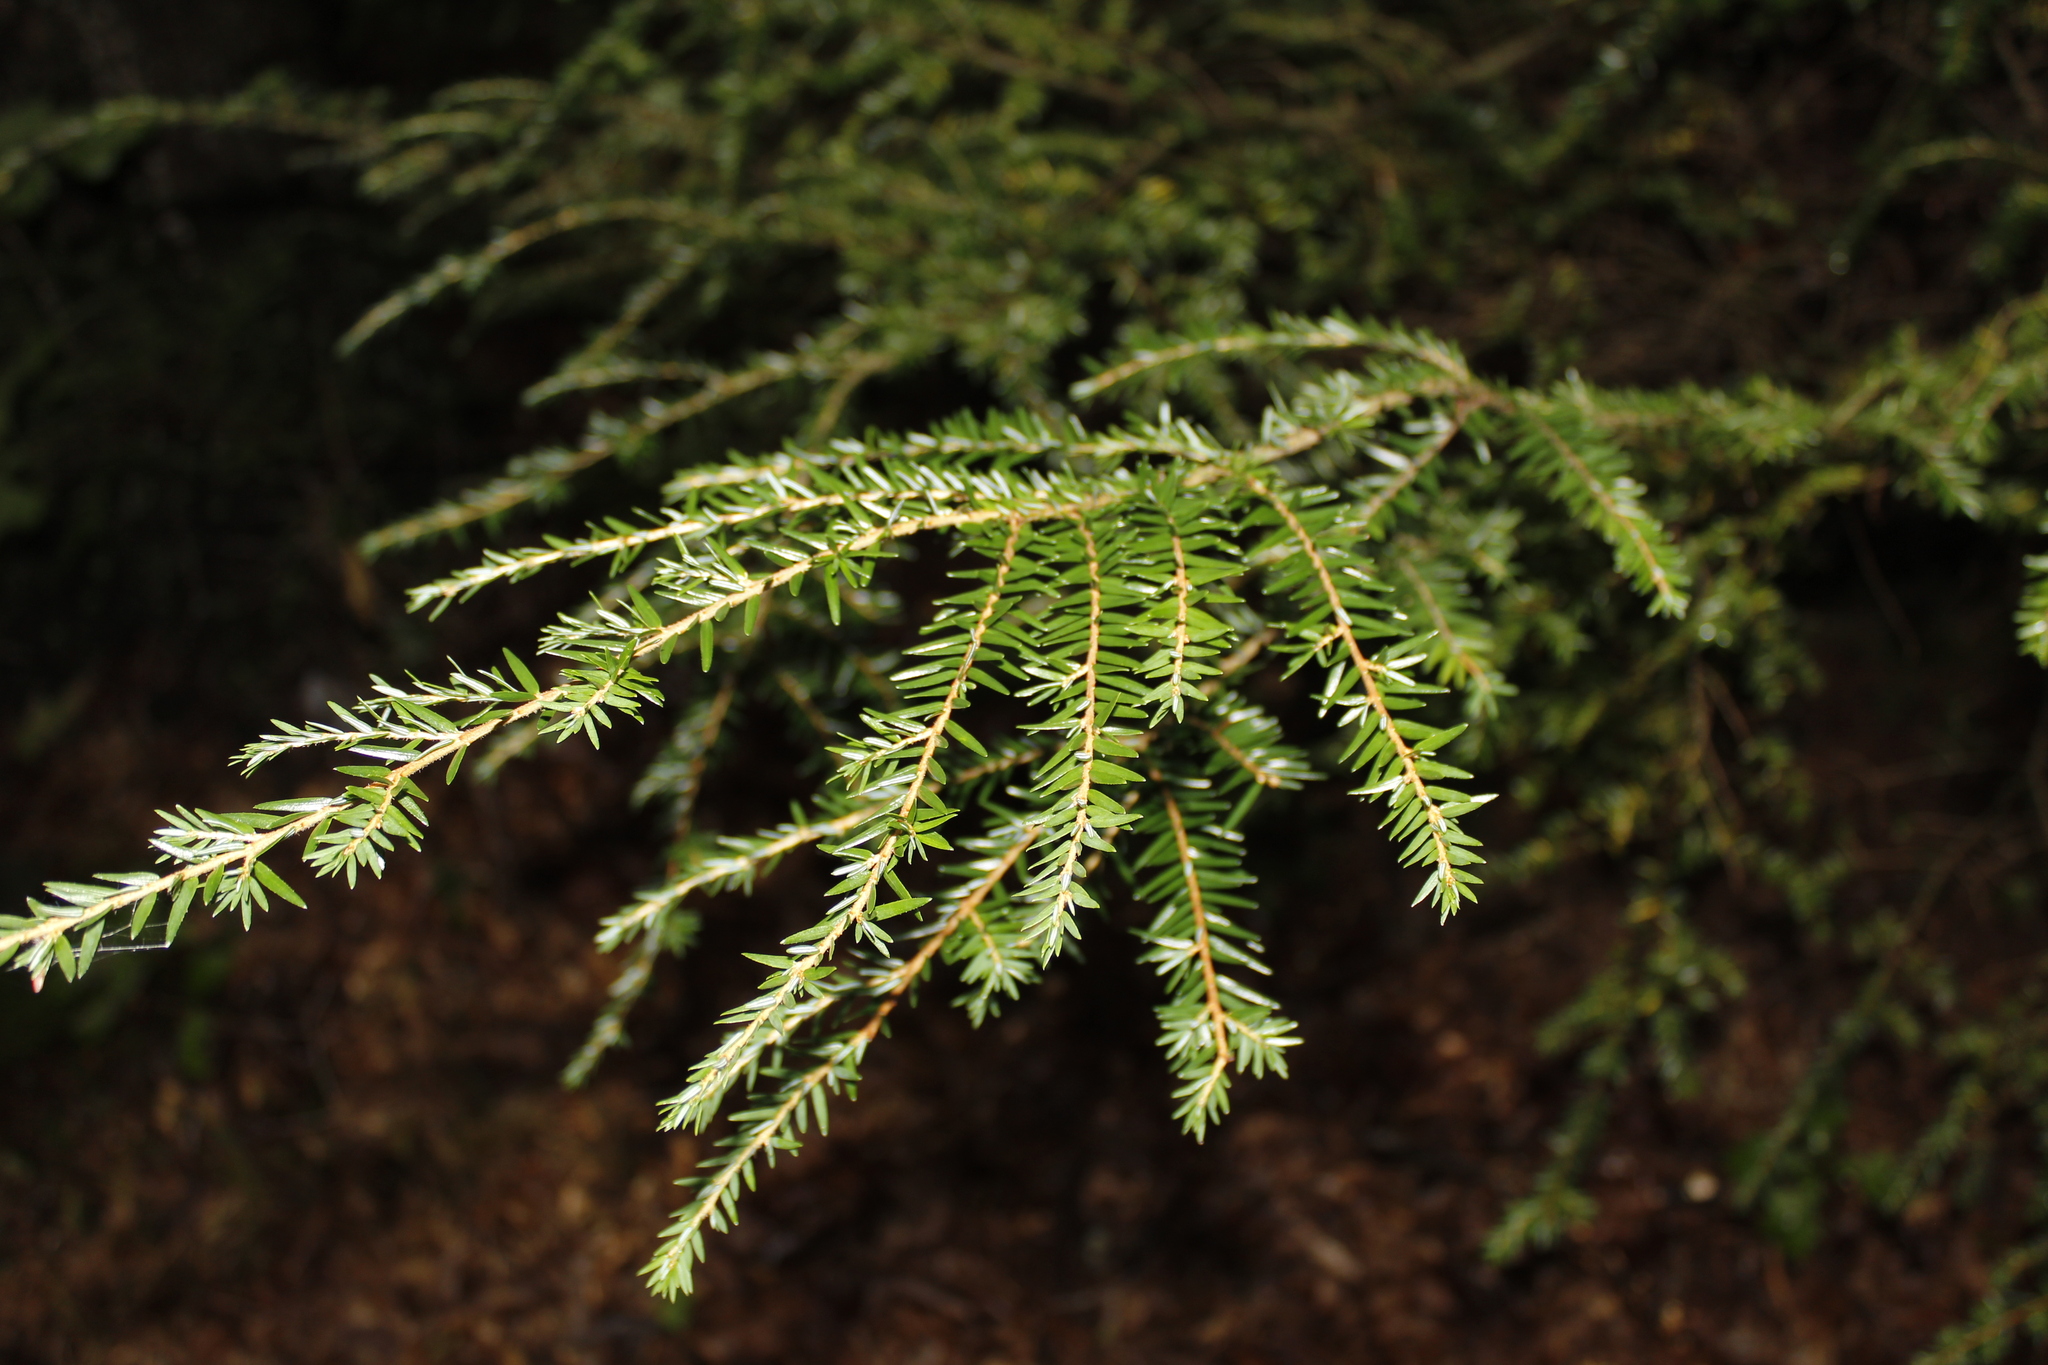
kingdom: Plantae
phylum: Tracheophyta
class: Pinopsida
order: Pinales
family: Pinaceae
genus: Tsuga
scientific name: Tsuga canadensis
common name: Eastern hemlock
